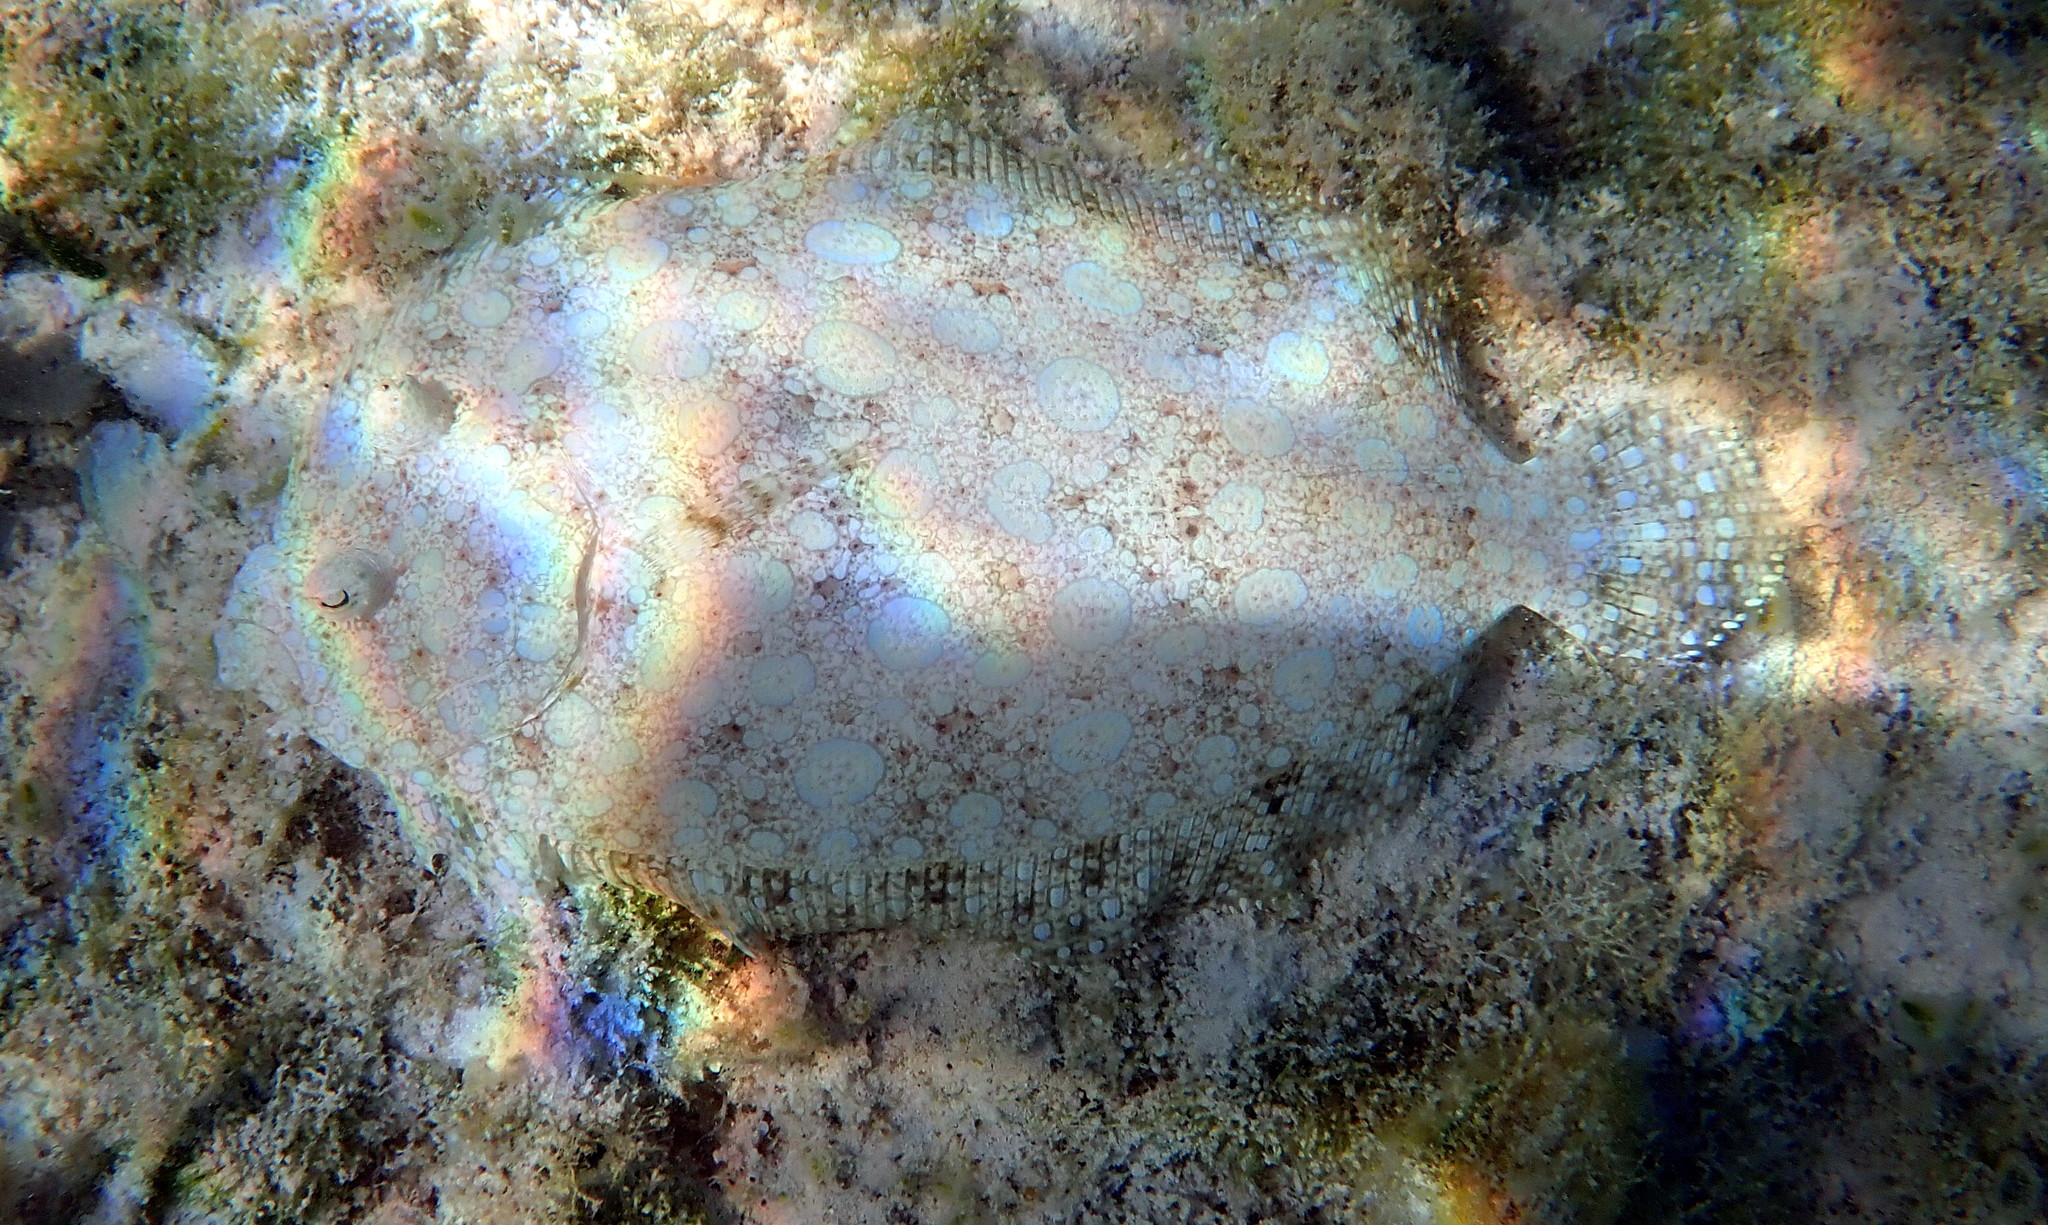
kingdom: Animalia
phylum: Chordata
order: Pleuronectiformes
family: Bothidae
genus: Bothus
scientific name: Bothus lunatus
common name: Peacock flounder
